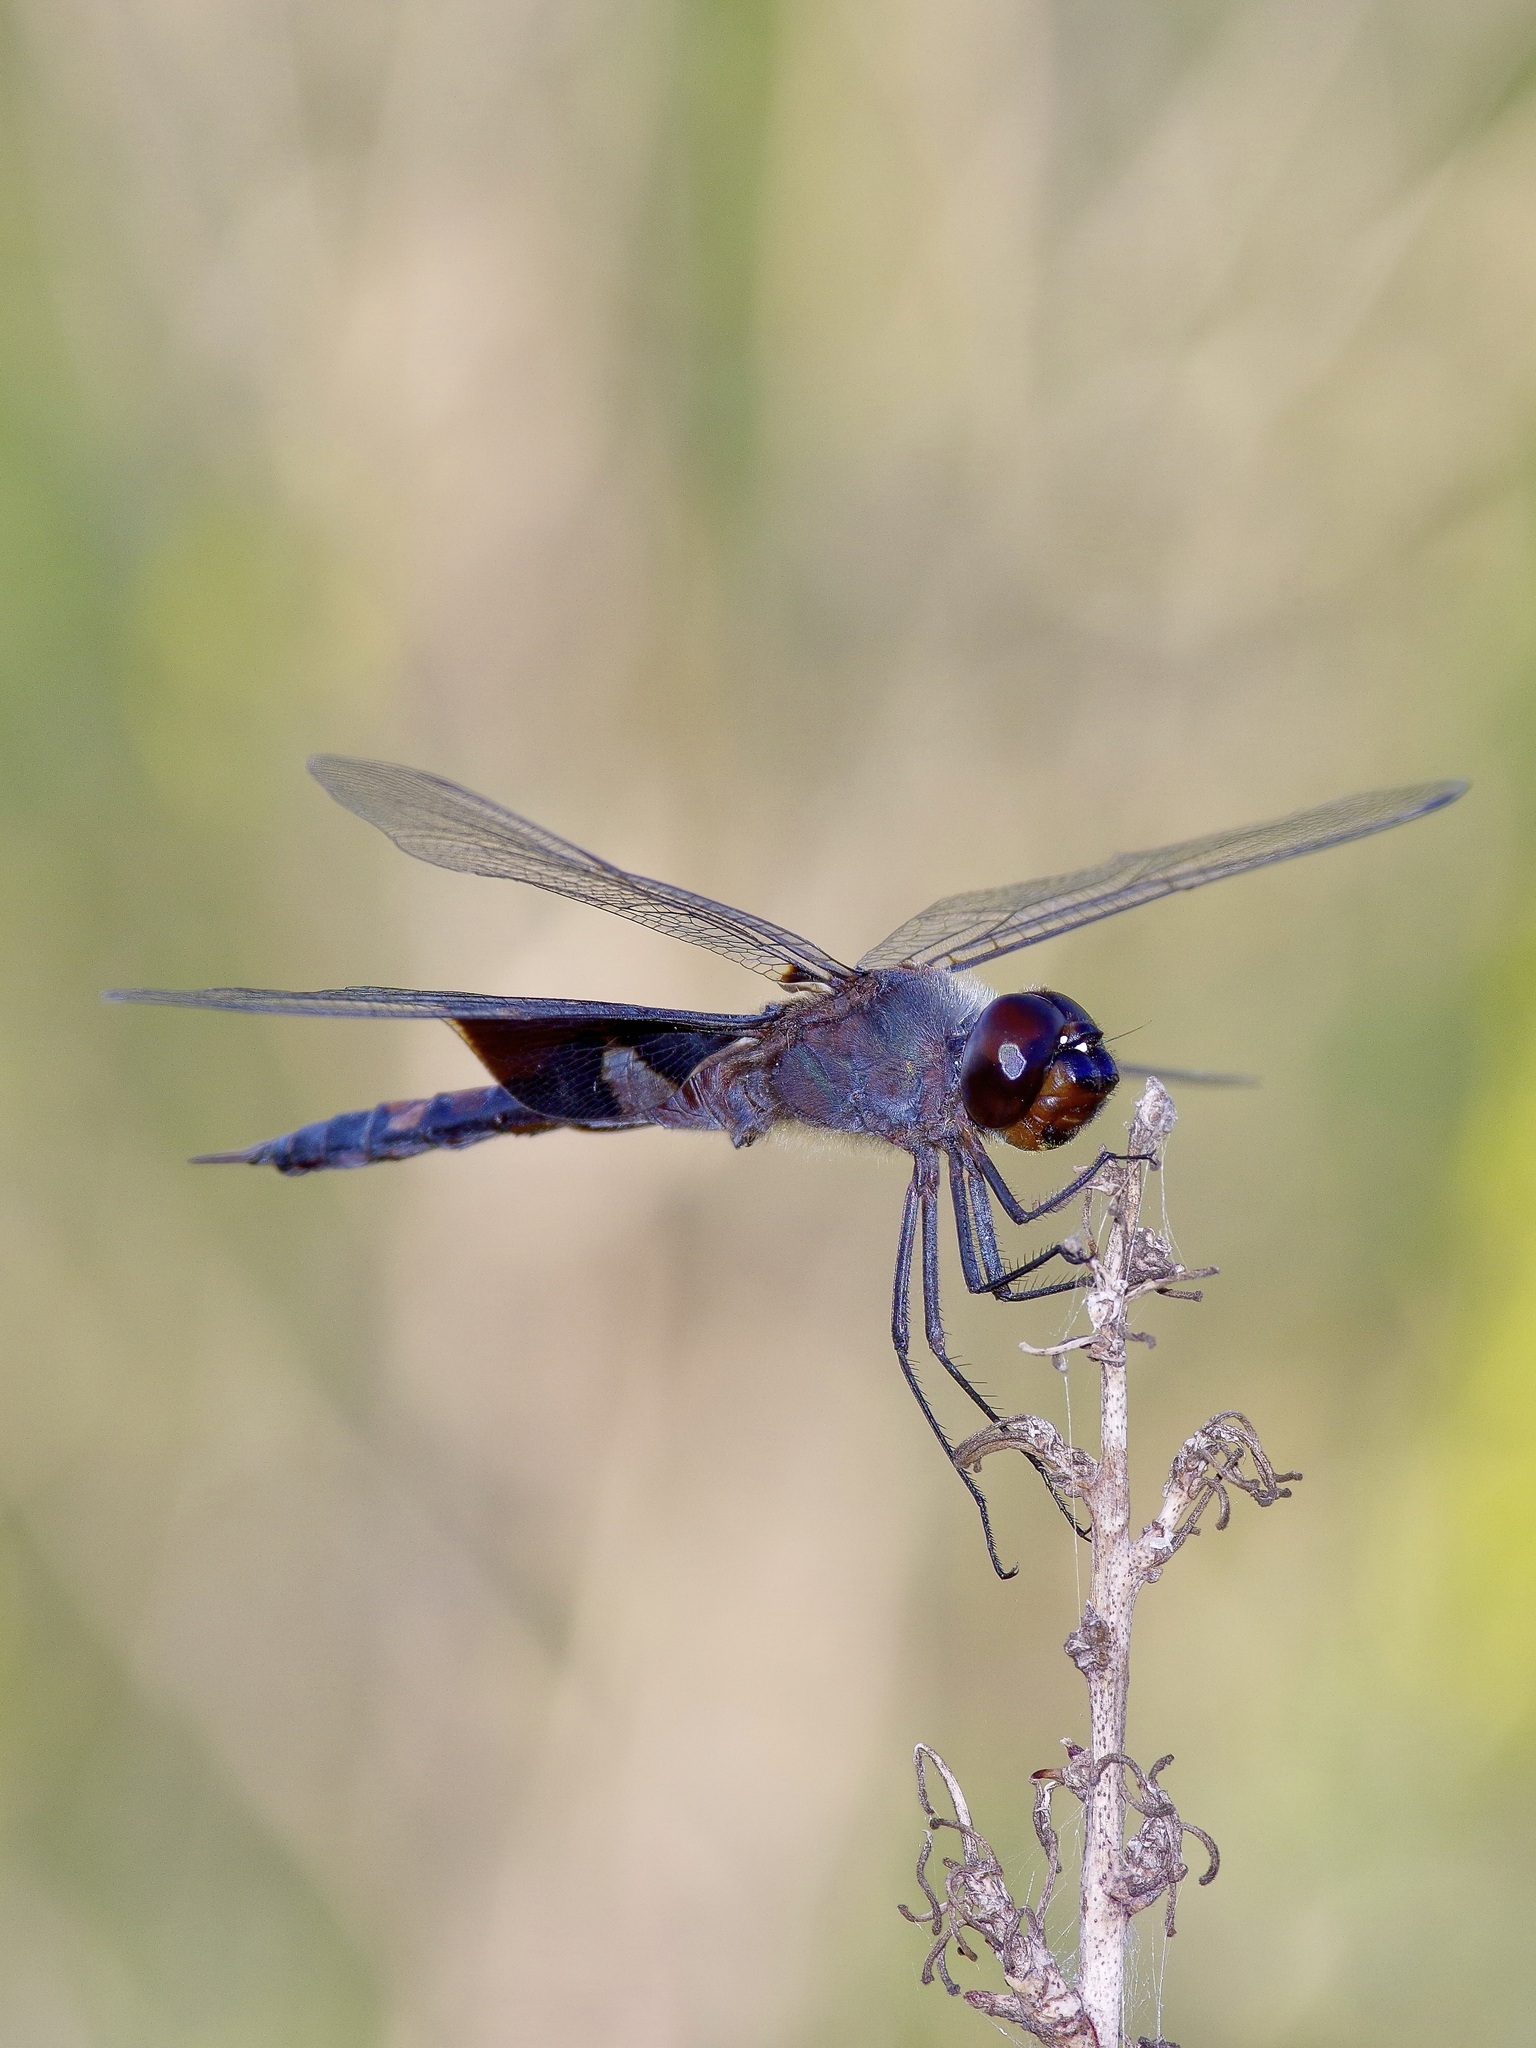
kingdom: Animalia
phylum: Arthropoda
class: Insecta
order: Odonata
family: Libellulidae
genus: Tramea
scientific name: Tramea lacerata
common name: Black saddlebags
